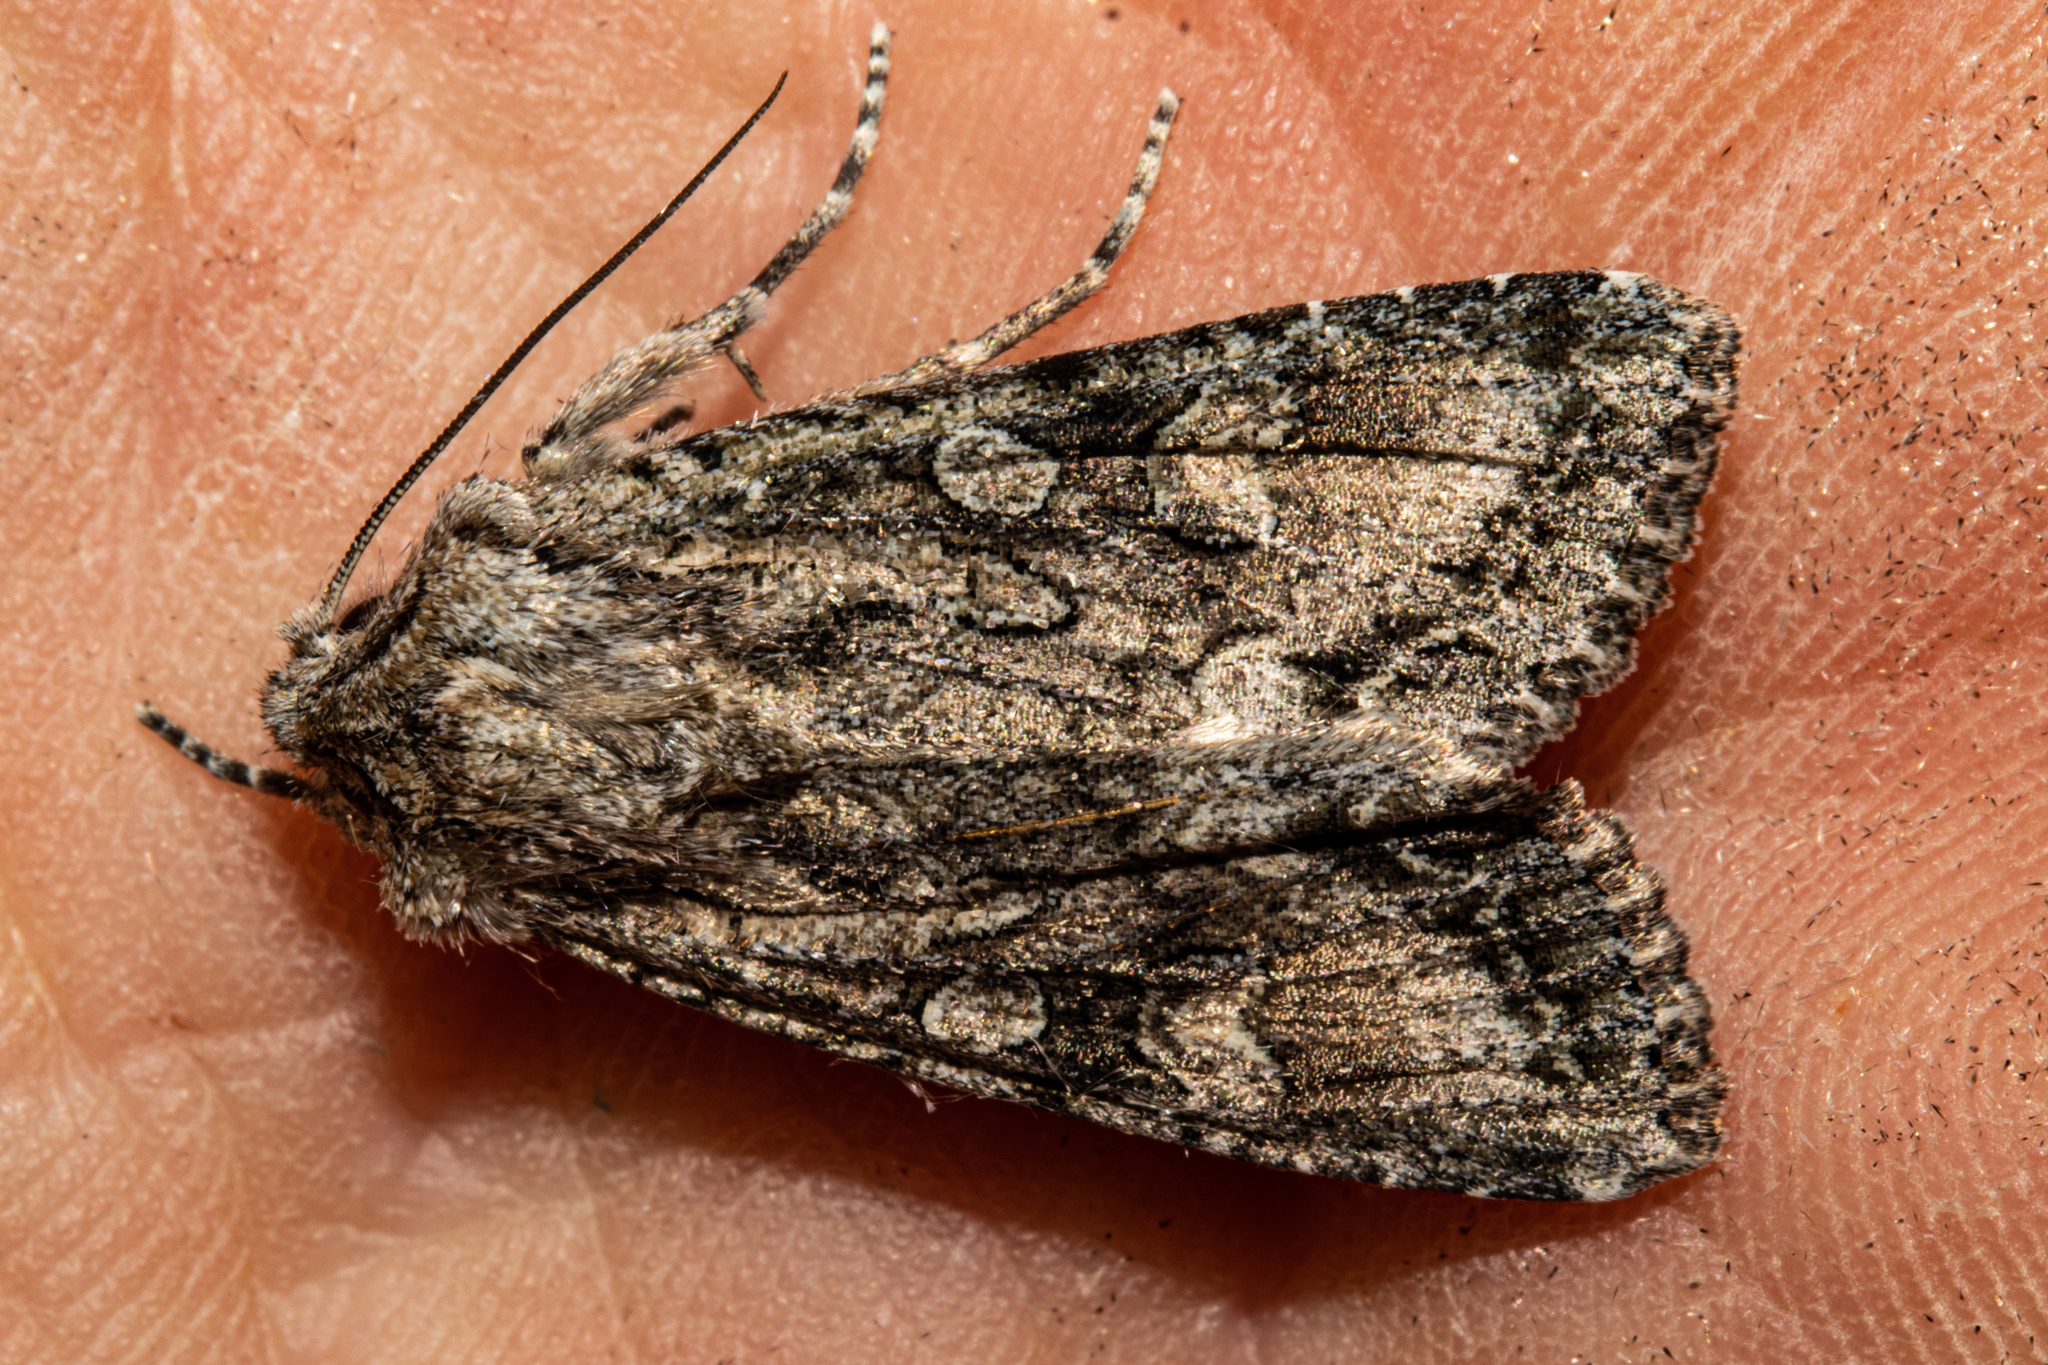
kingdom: Animalia
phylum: Arthropoda
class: Insecta
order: Lepidoptera
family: Noctuidae
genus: Ichneutica
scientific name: Ichneutica mutans
